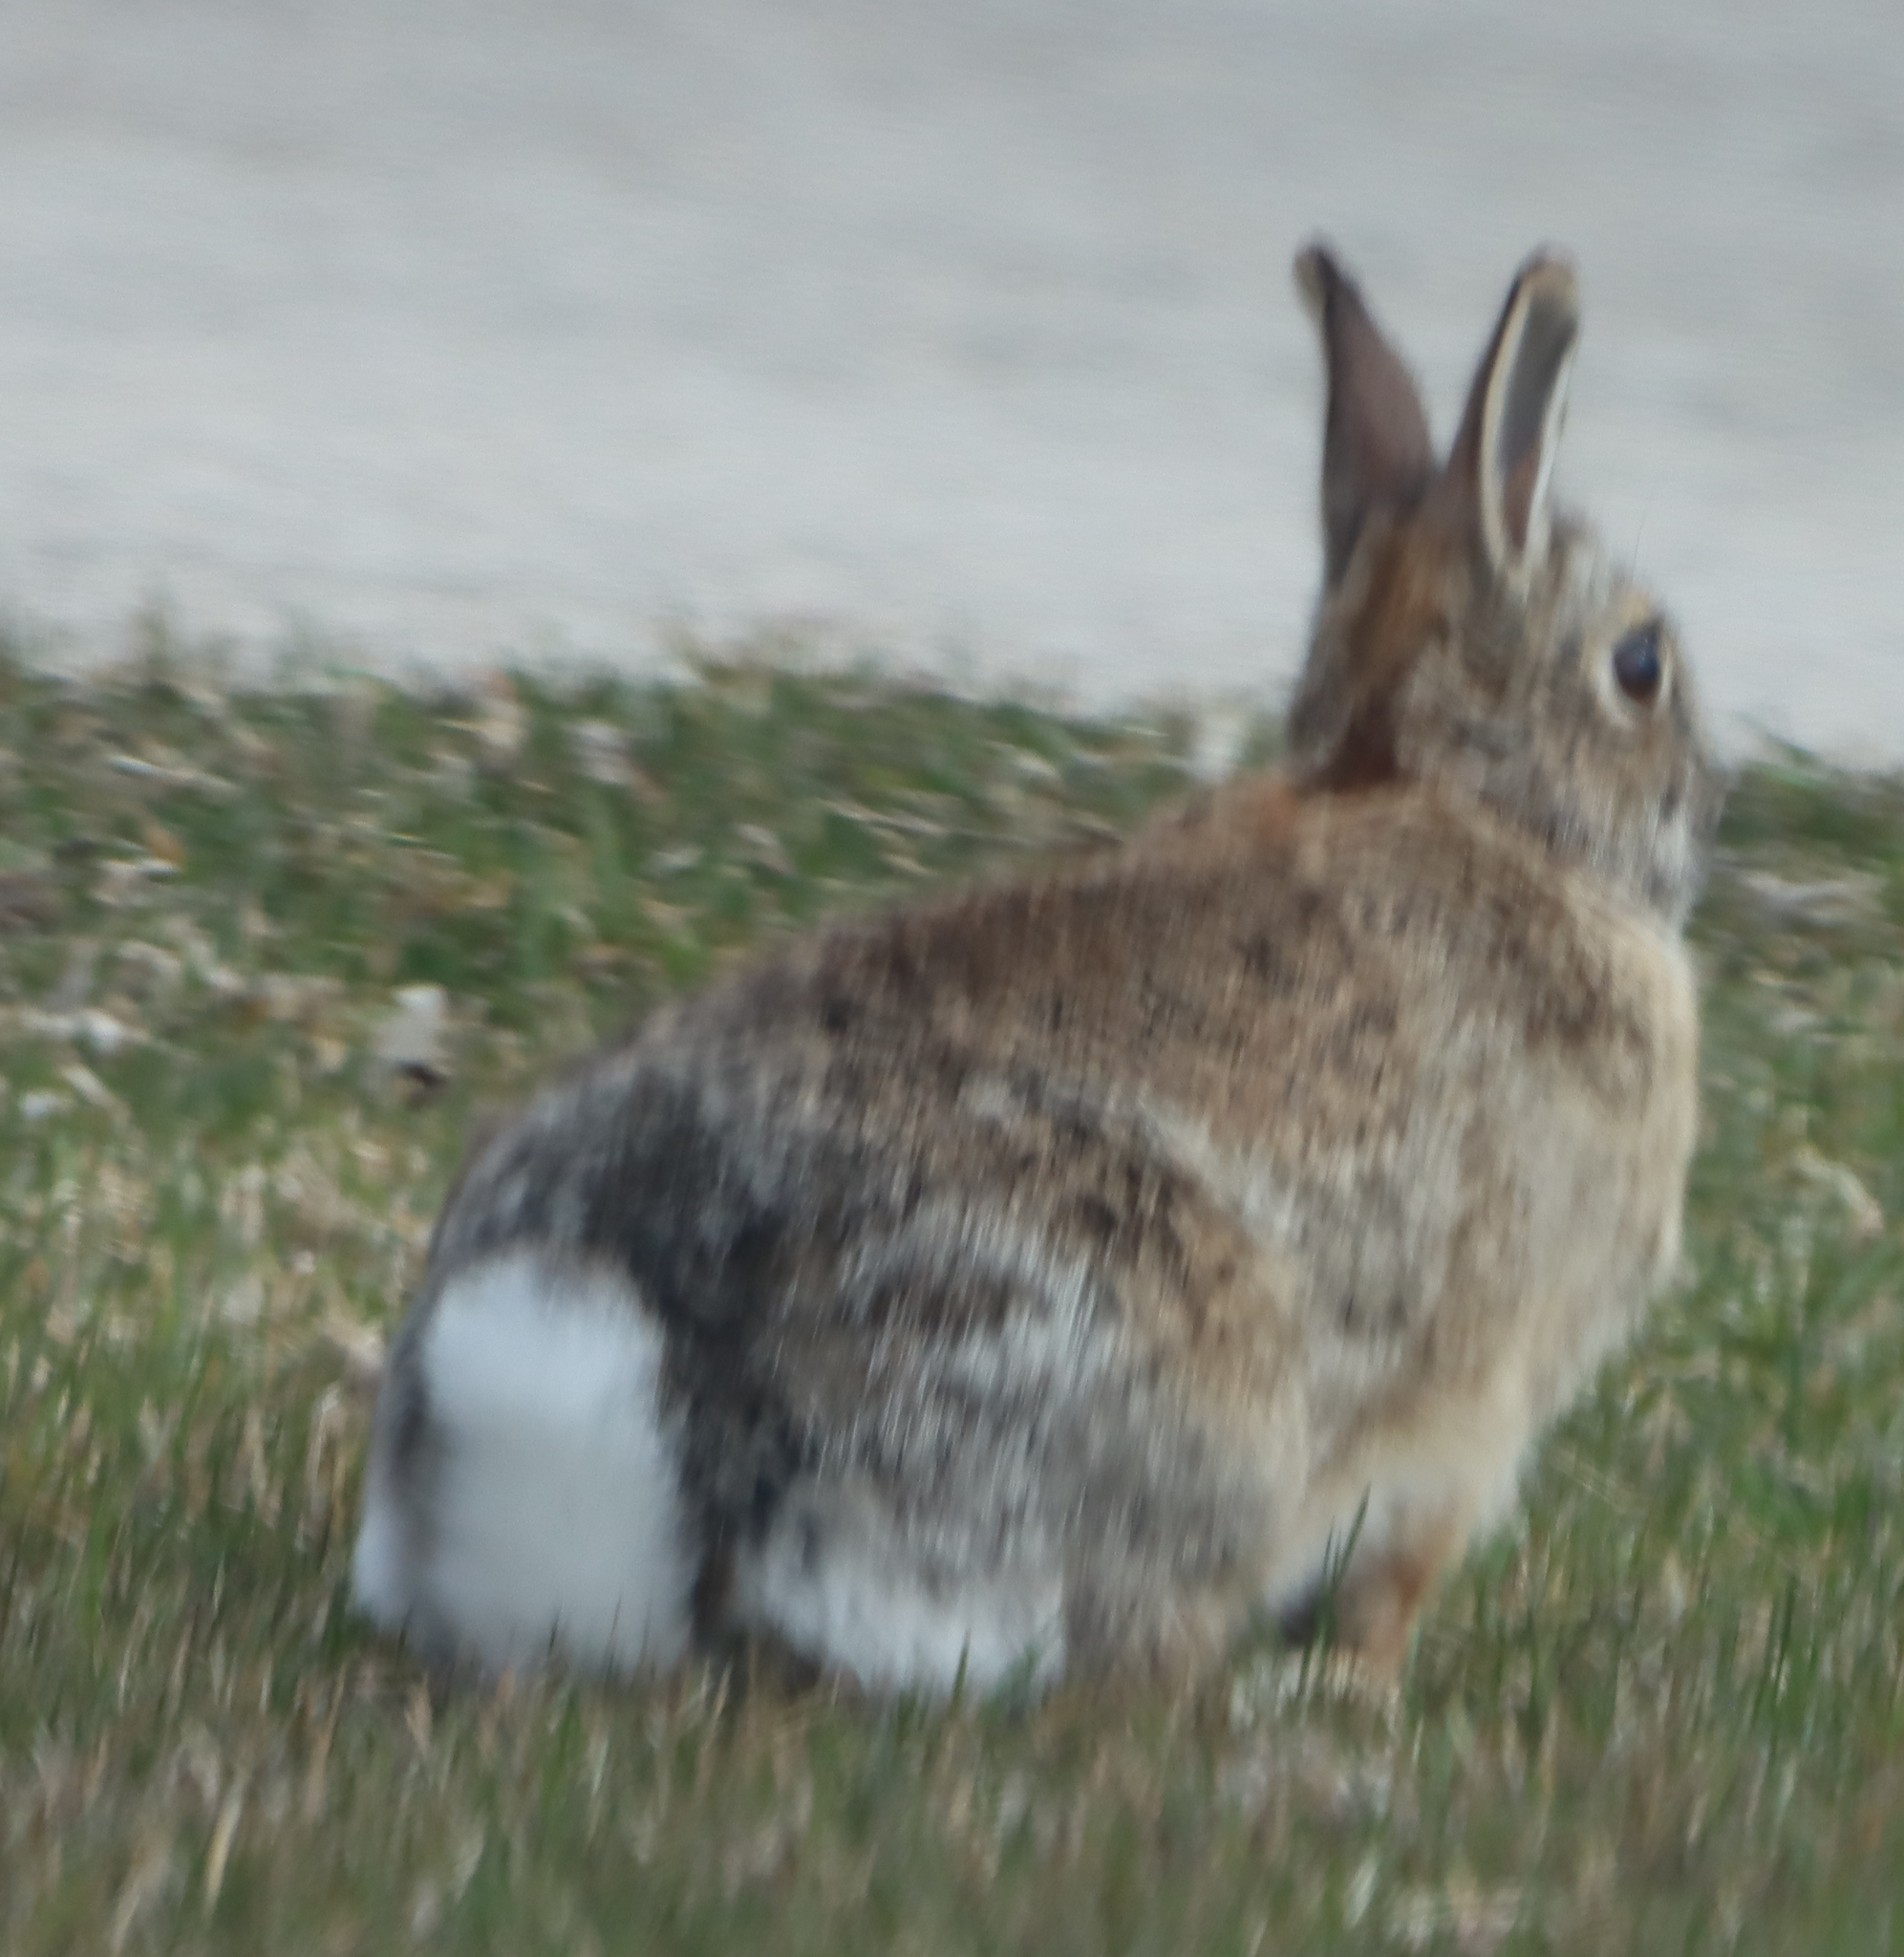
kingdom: Animalia
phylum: Chordata
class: Mammalia
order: Lagomorpha
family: Leporidae
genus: Sylvilagus
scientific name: Sylvilagus floridanus
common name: Eastern cottontail
